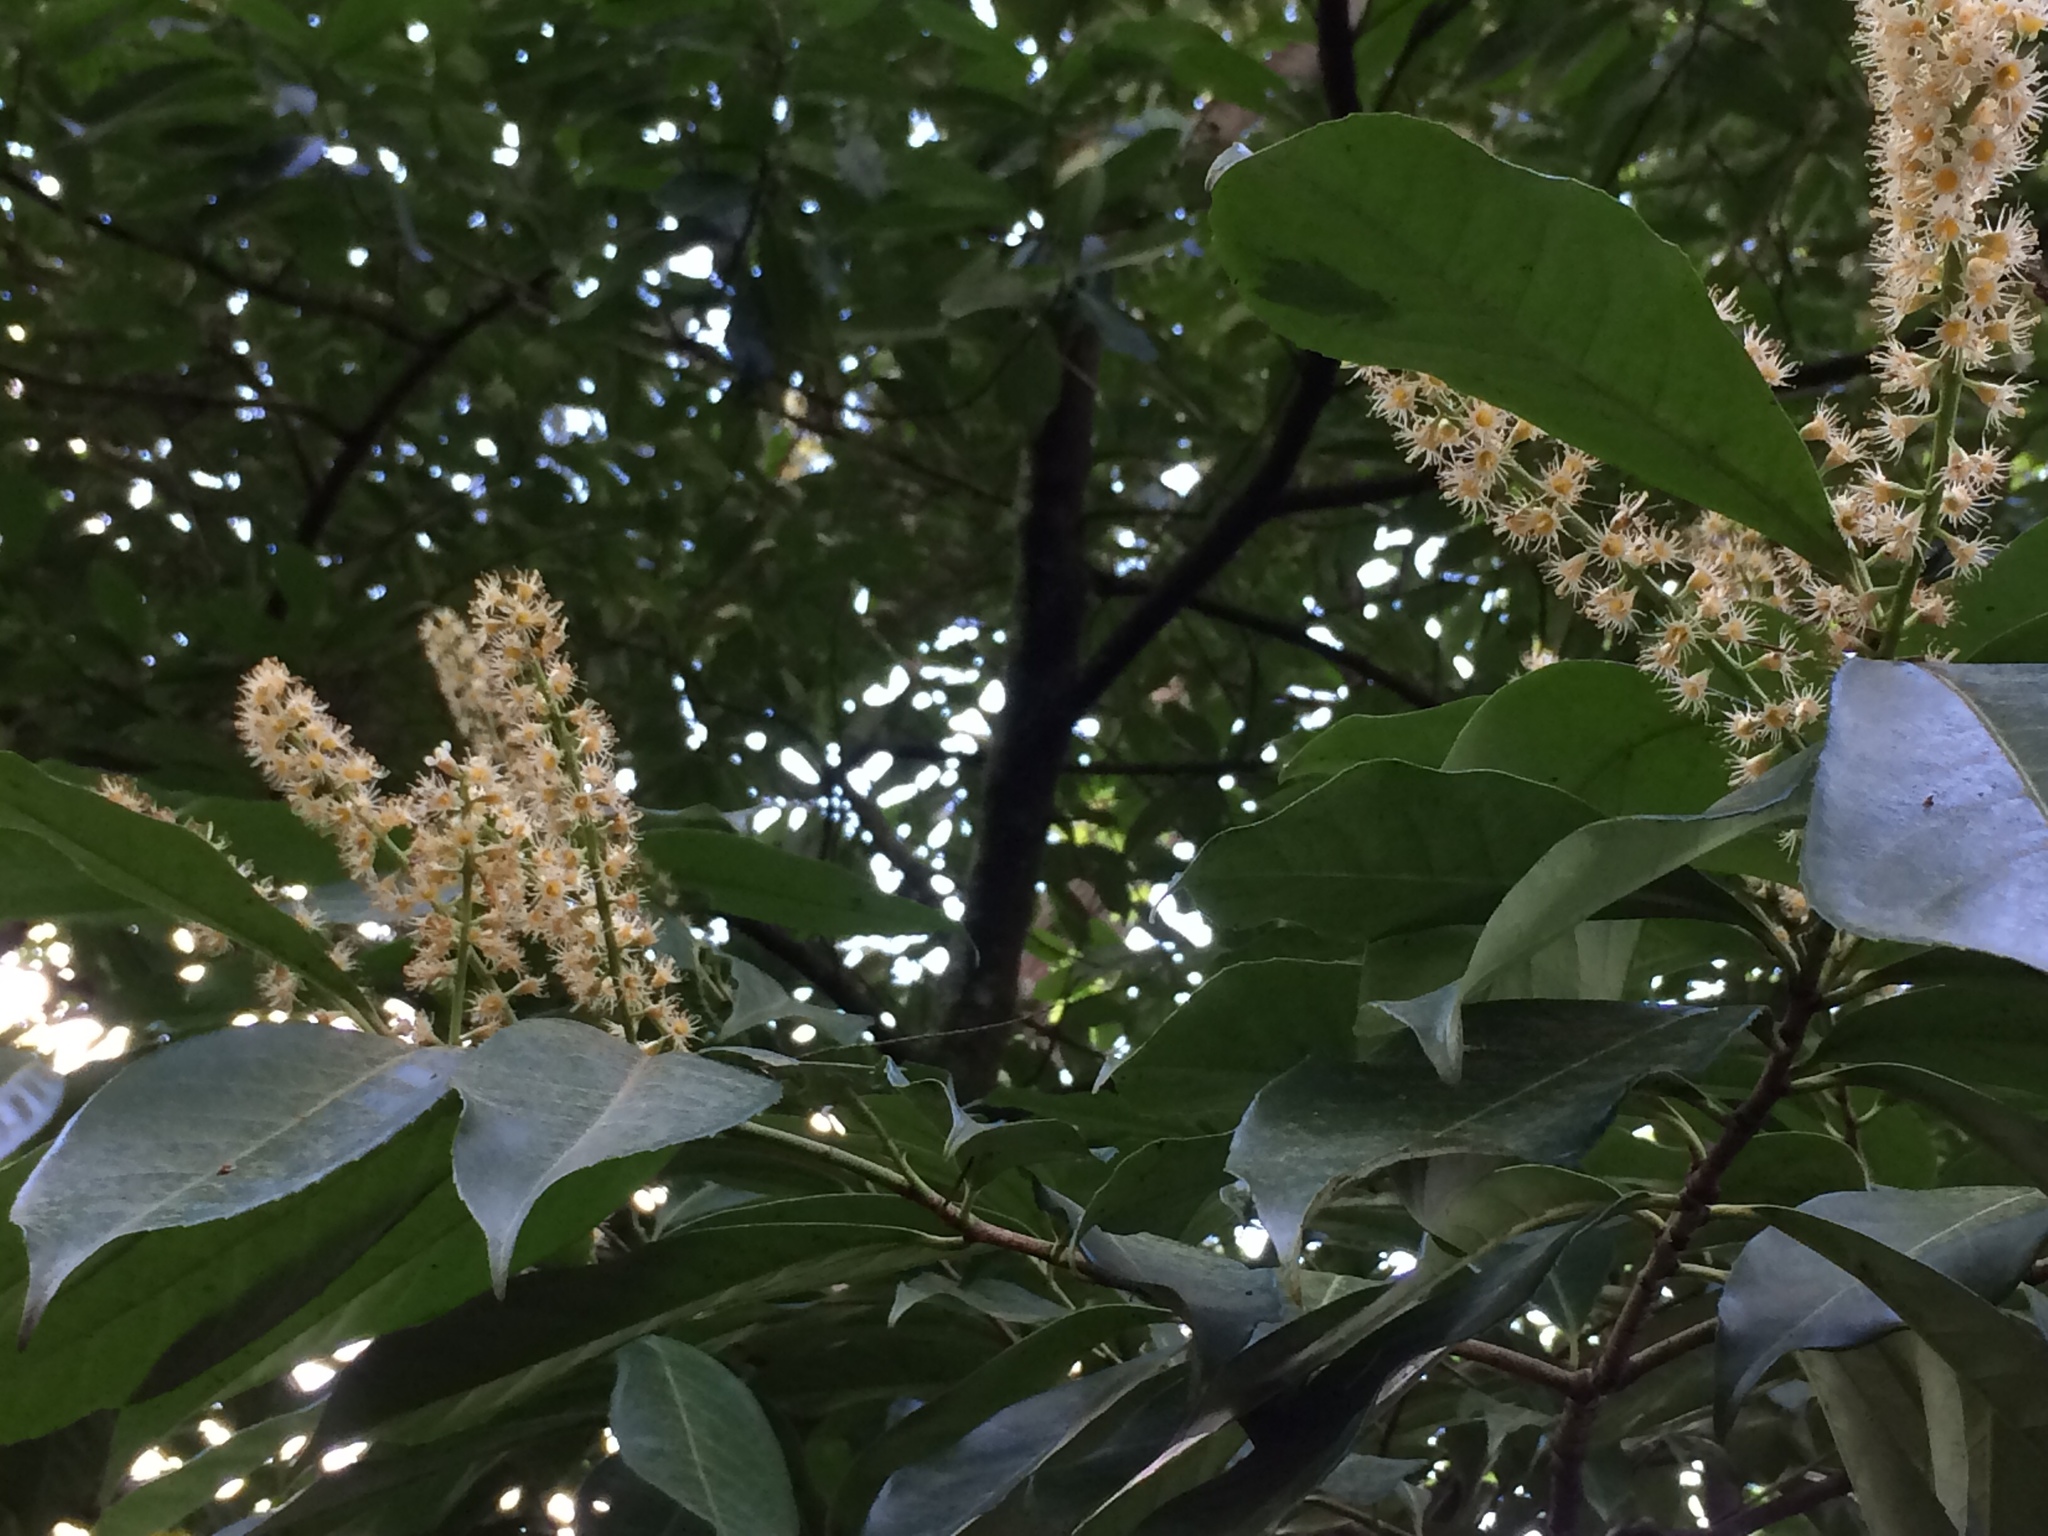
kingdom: Plantae
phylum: Tracheophyta
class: Magnoliopsida
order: Rosales
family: Rosaceae
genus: Prunus
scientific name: Prunus laurocerasus
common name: Cherry laurel
